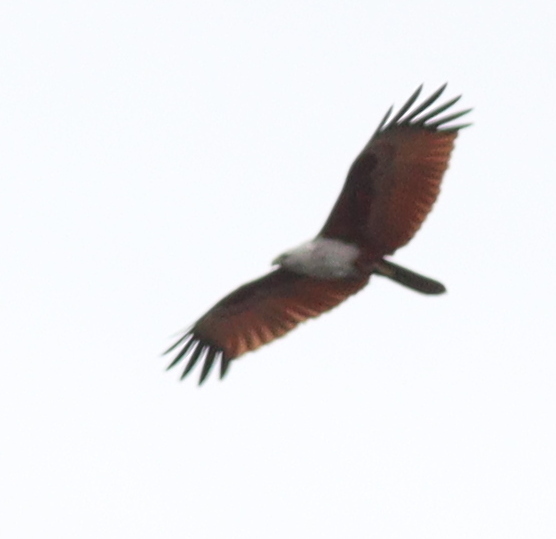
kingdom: Animalia
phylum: Chordata
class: Aves
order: Accipitriformes
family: Accipitridae
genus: Haliastur
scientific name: Haliastur indus
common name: Brahminy kite
